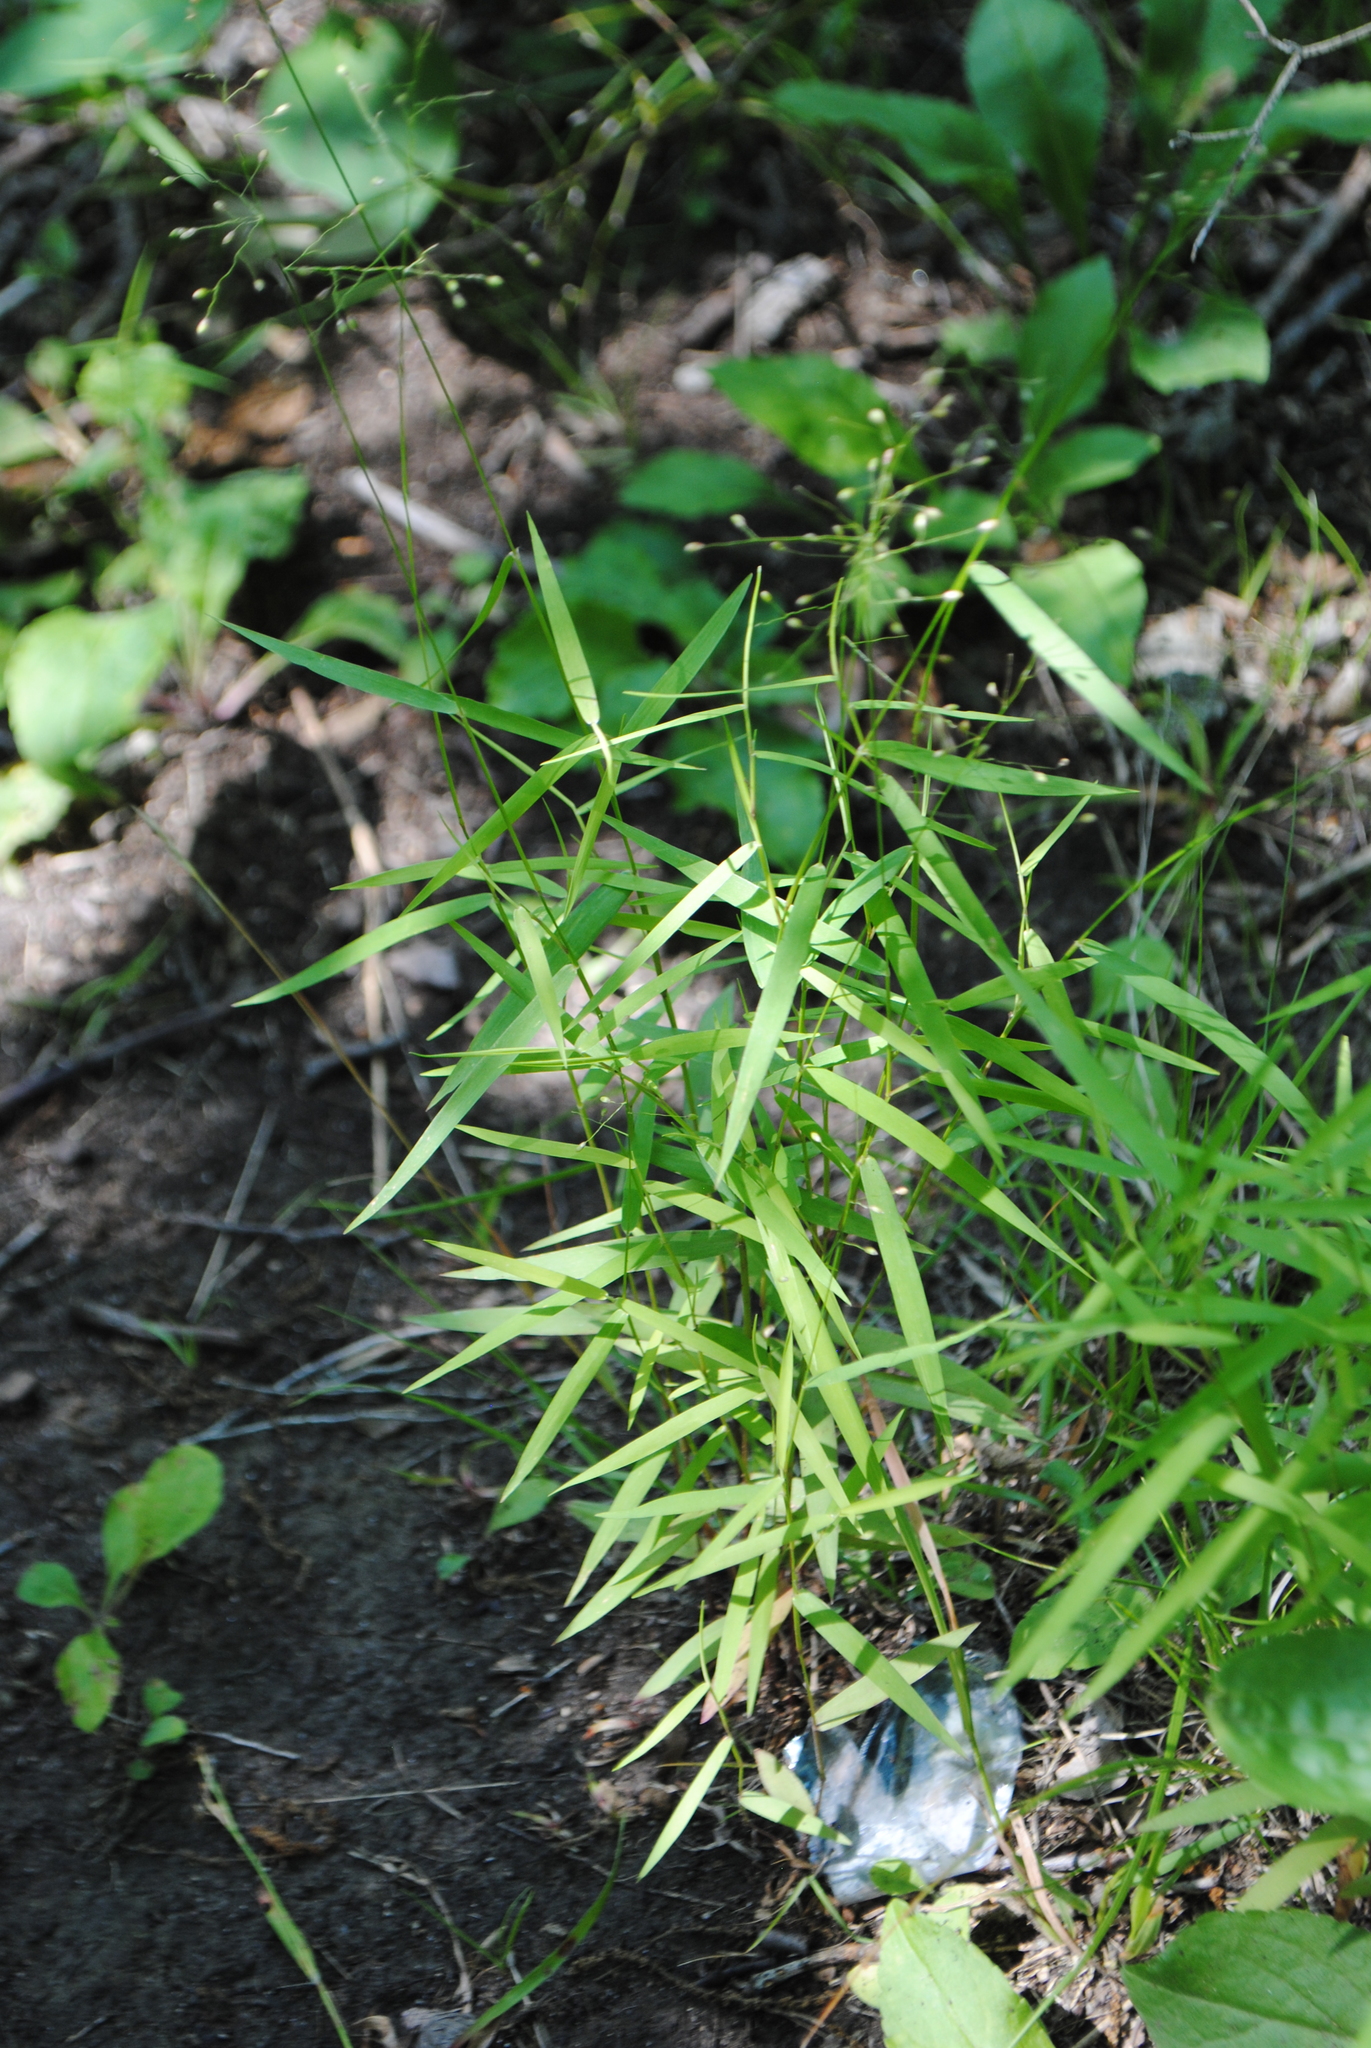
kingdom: Plantae
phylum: Tracheophyta
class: Liliopsida
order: Poales
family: Poaceae
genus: Dichanthelium
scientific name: Dichanthelium dichotomum
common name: Cypress panicgrass
